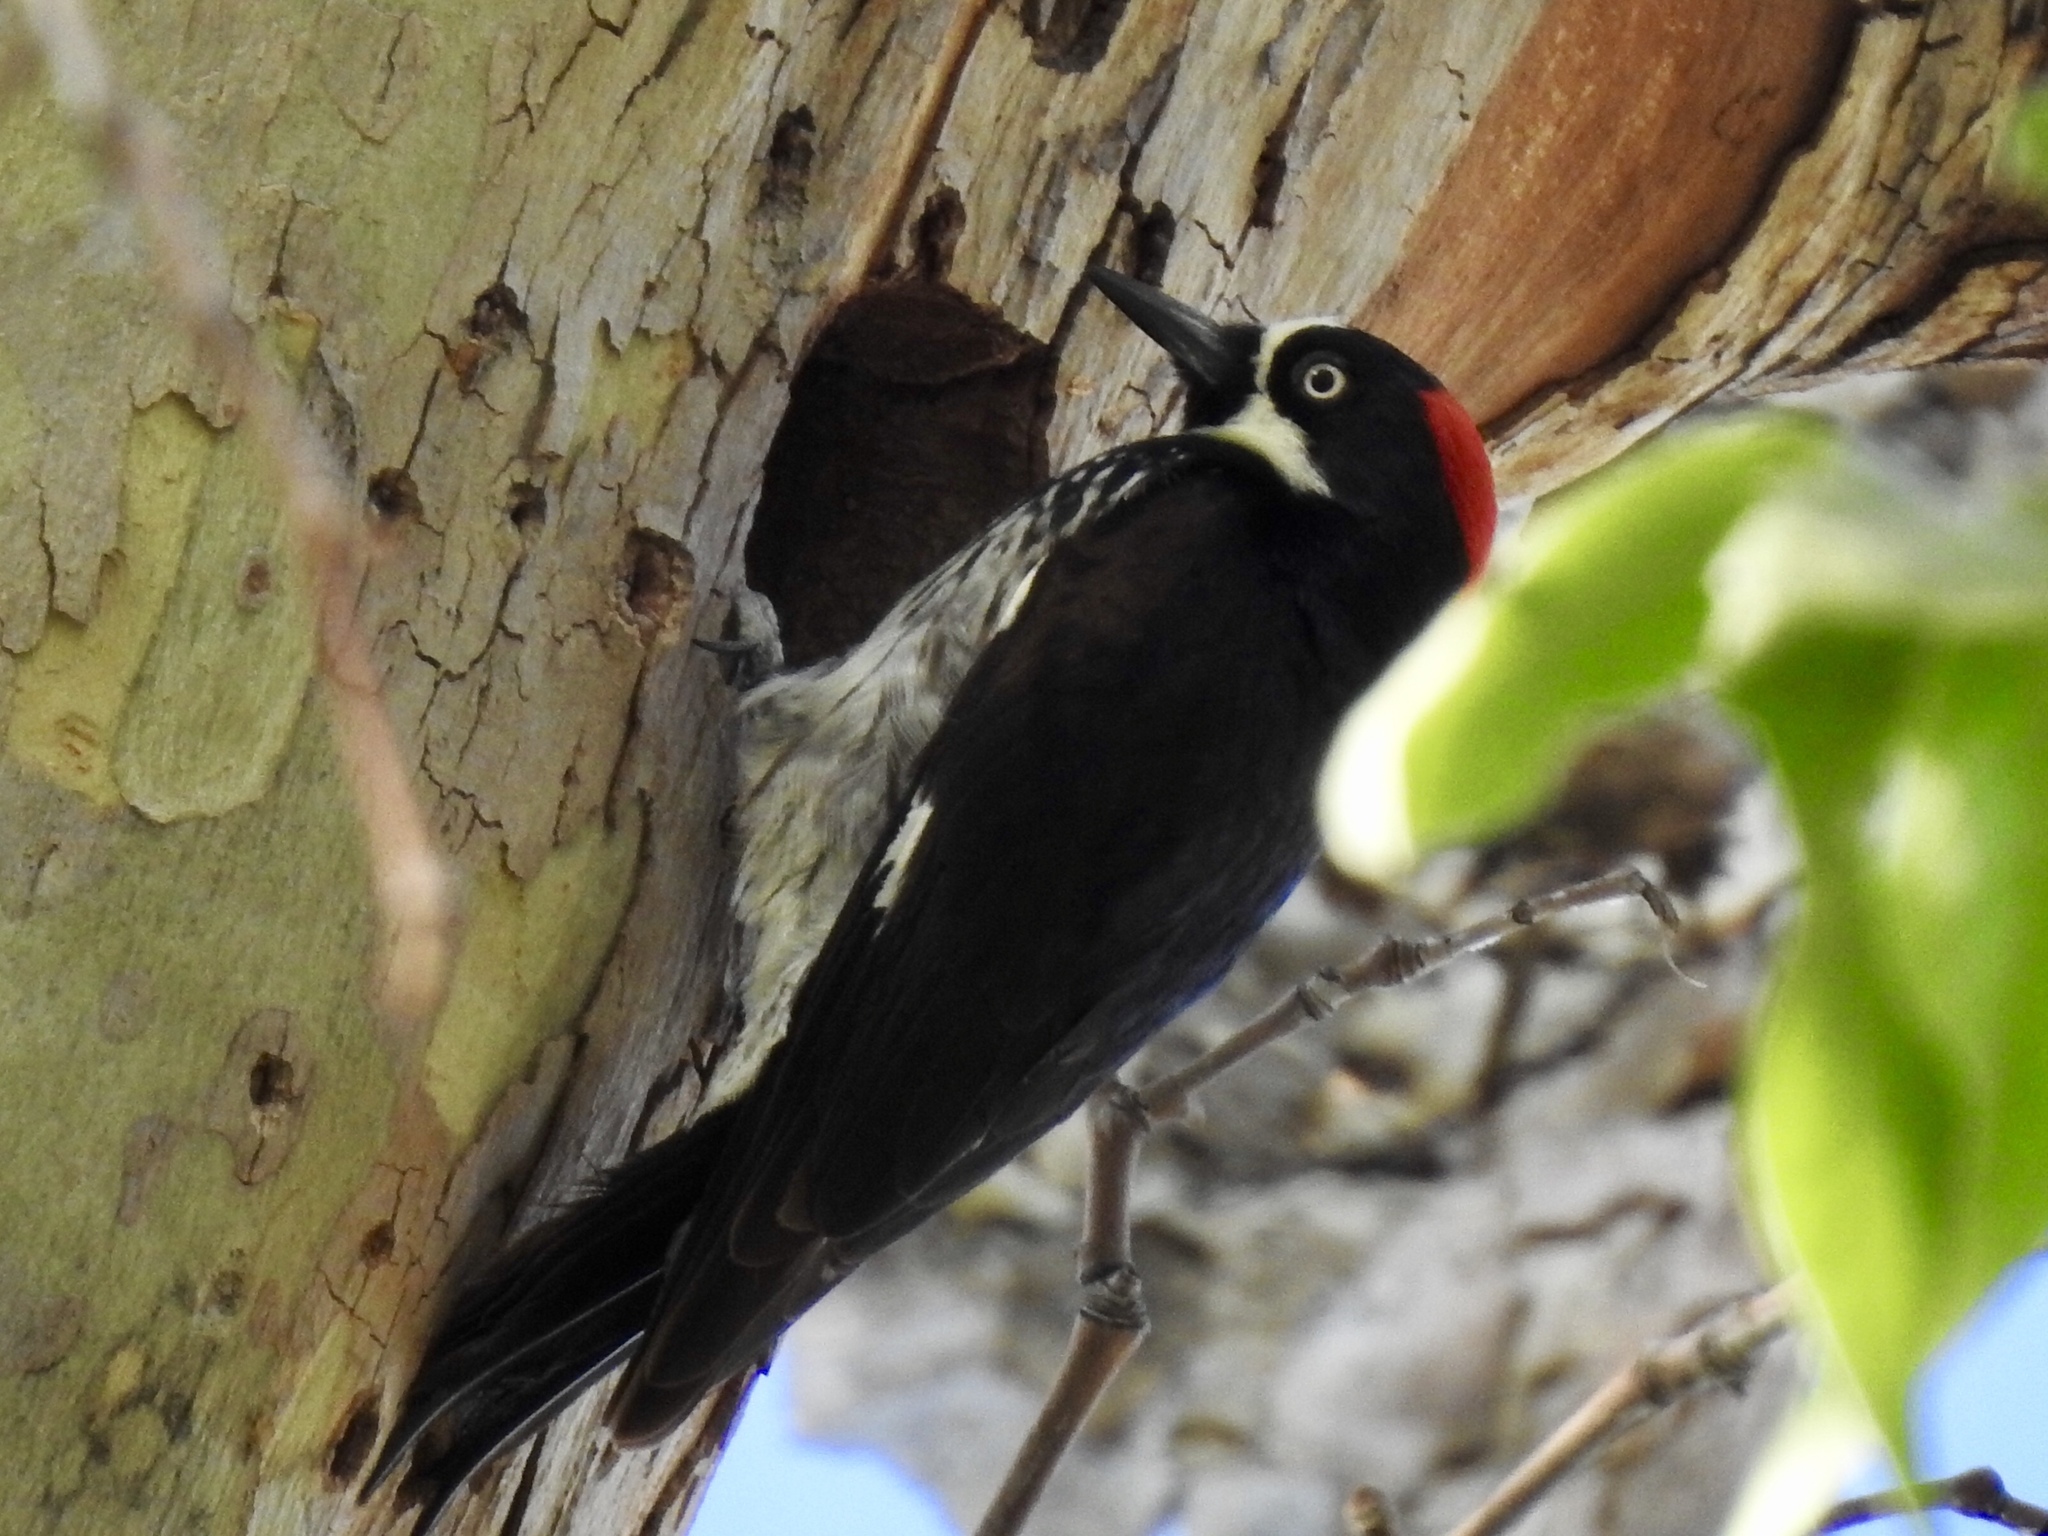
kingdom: Animalia
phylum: Chordata
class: Aves
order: Piciformes
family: Picidae
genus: Melanerpes
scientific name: Melanerpes formicivorus
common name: Acorn woodpecker
